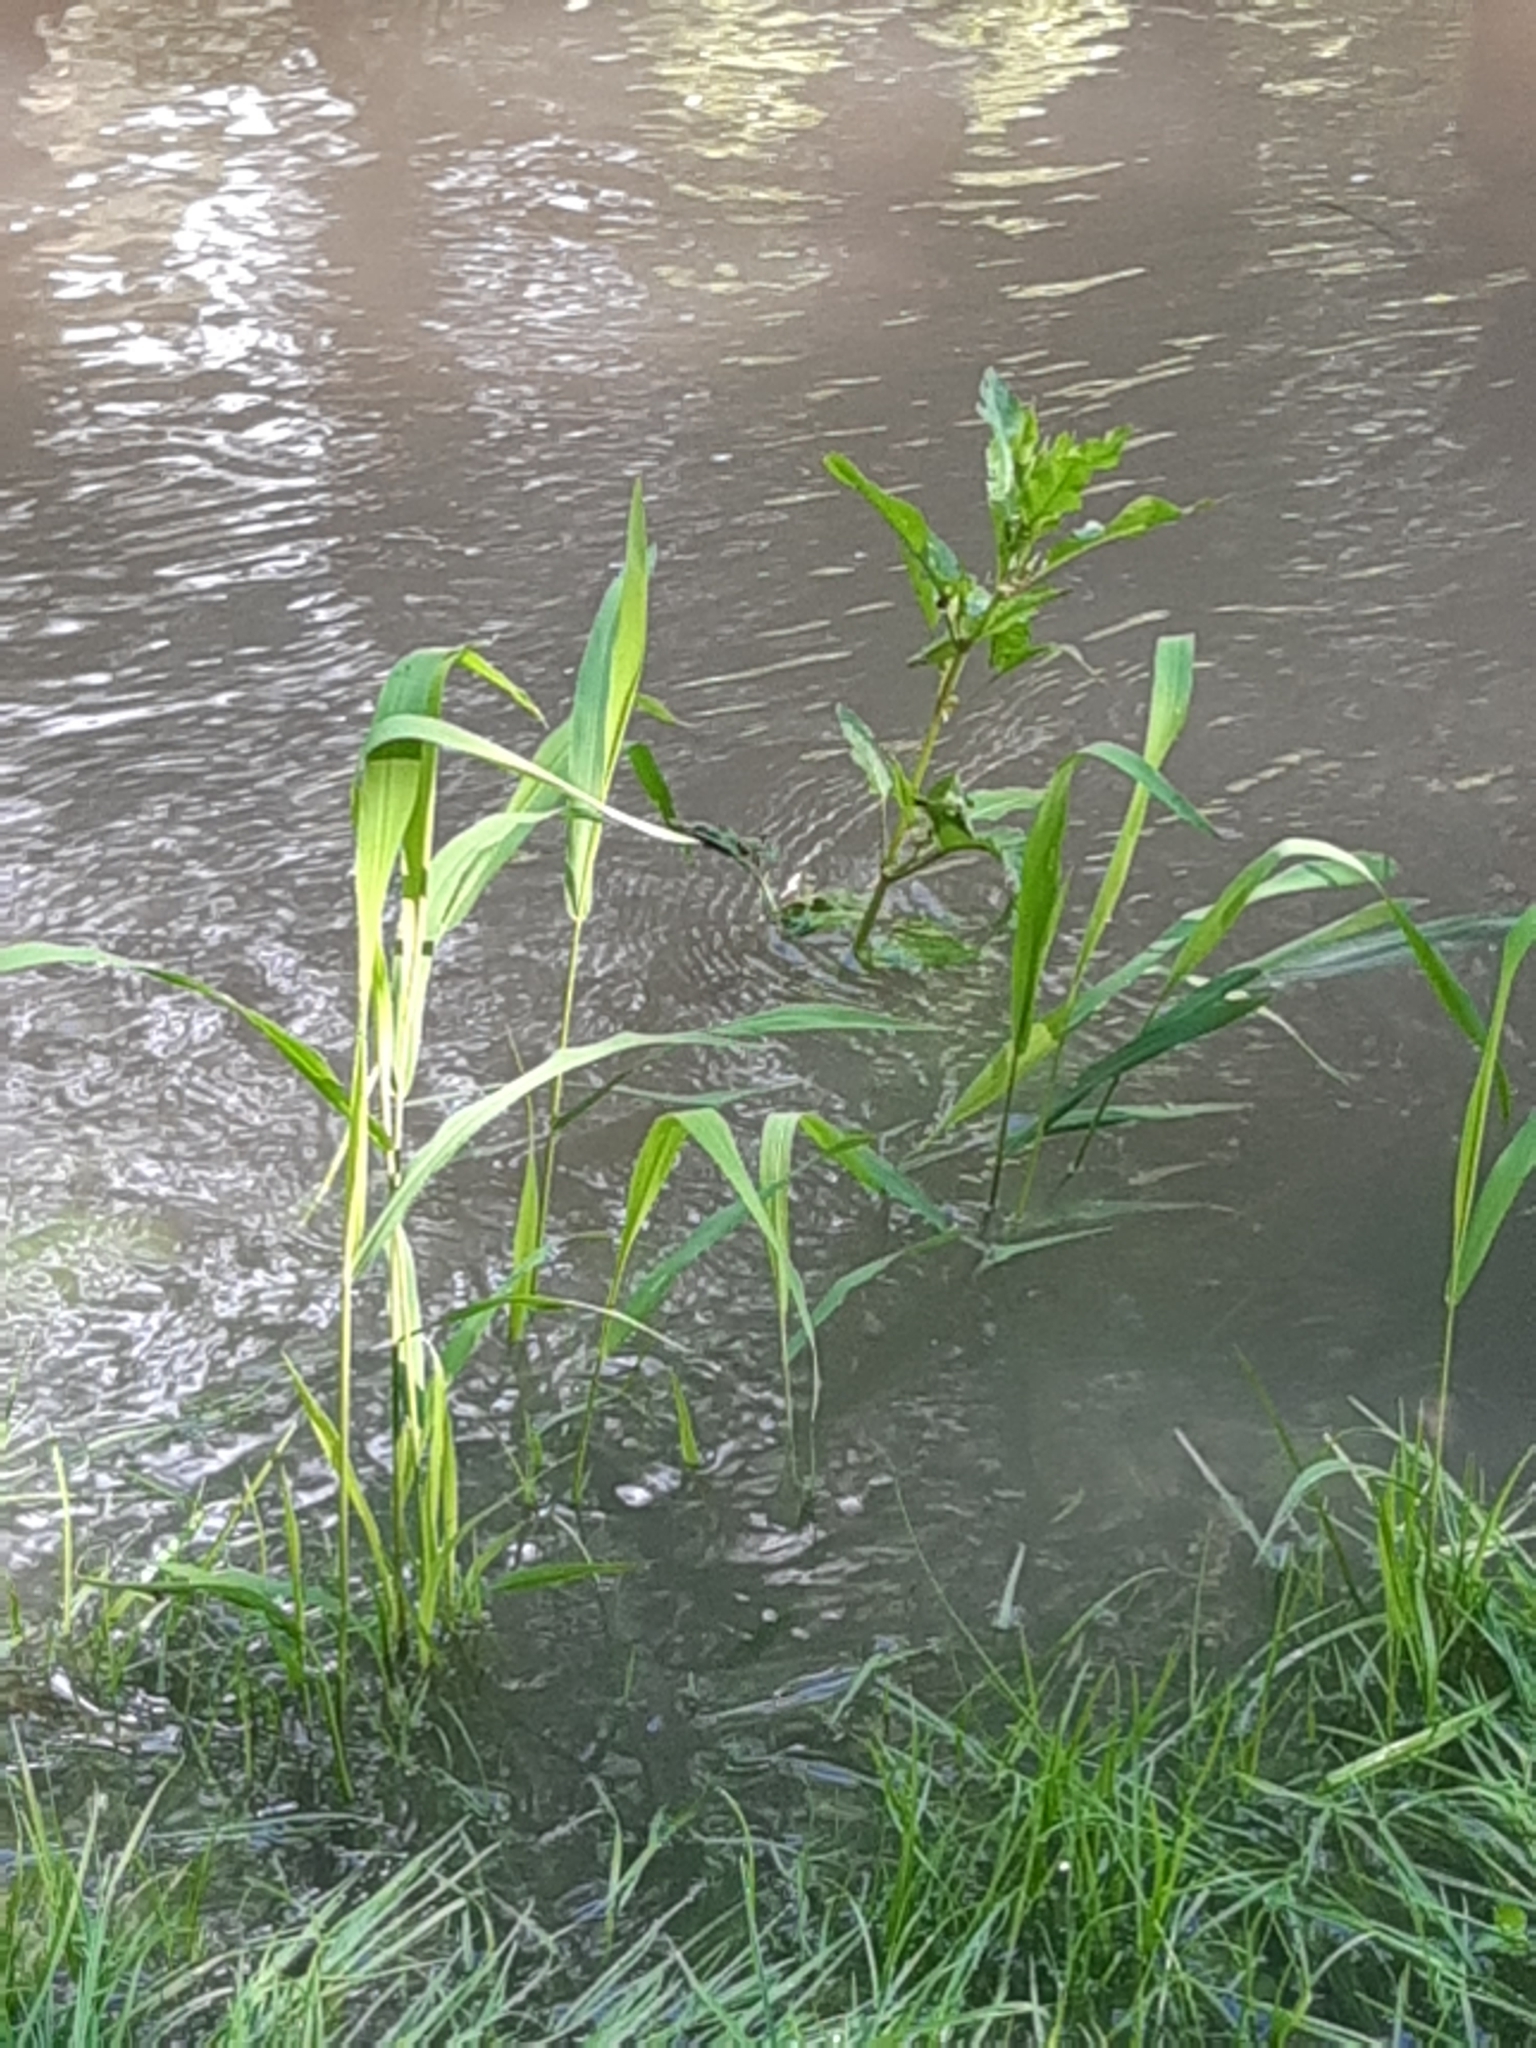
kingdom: Plantae
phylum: Tracheophyta
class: Liliopsida
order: Poales
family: Poaceae
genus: Phragmites
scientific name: Phragmites australis
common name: Common reed
